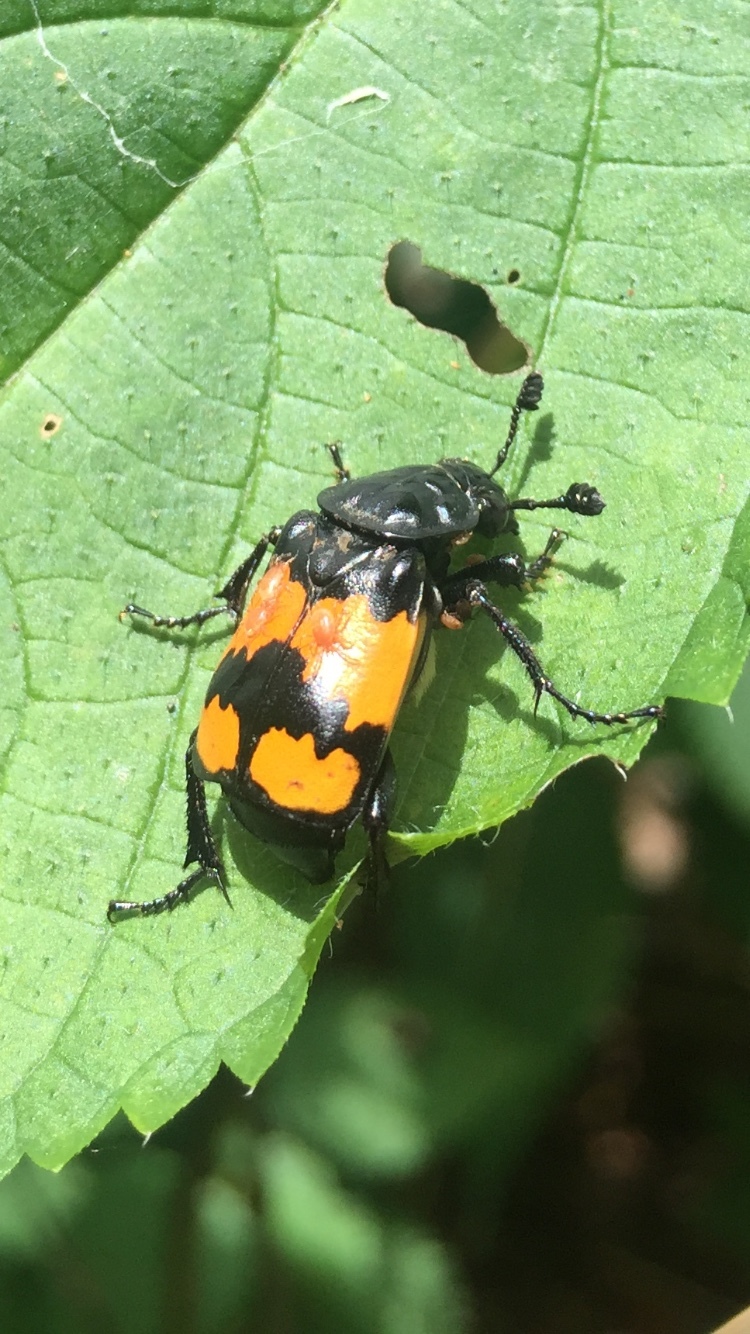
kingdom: Animalia
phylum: Arthropoda
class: Insecta
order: Coleoptera
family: Staphylinidae
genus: Nicrophorus
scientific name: Nicrophorus defodiens
